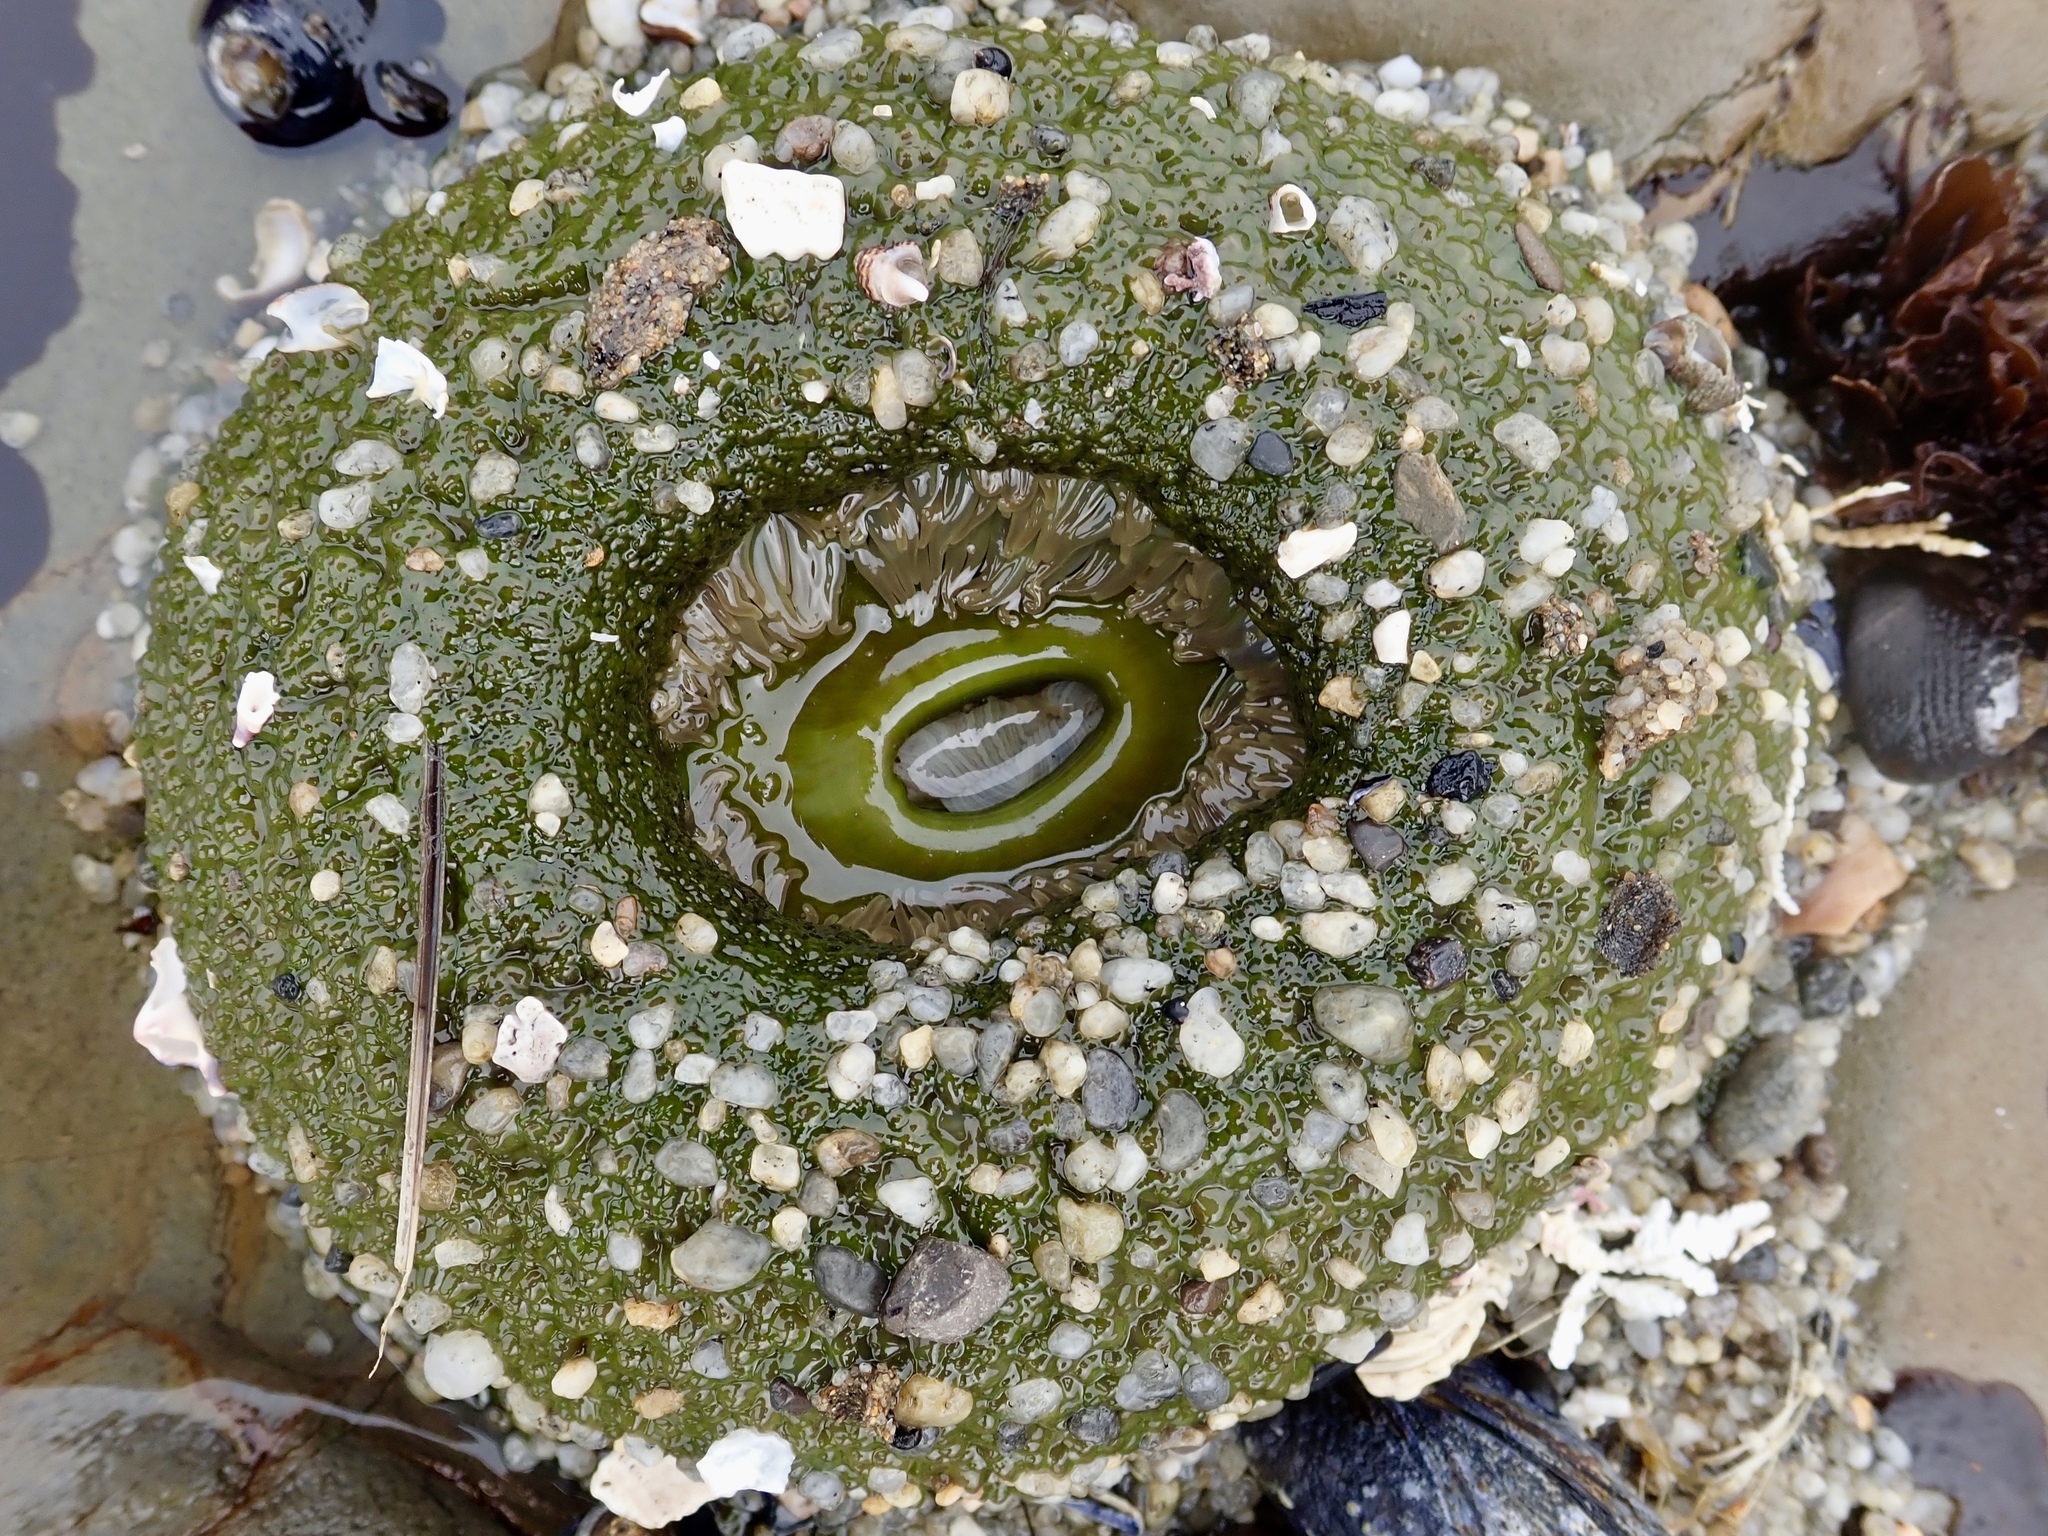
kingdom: Animalia
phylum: Cnidaria
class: Anthozoa
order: Actiniaria
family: Actiniidae
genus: Anthopleura
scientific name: Anthopleura xanthogrammica
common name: Giant green anemone
